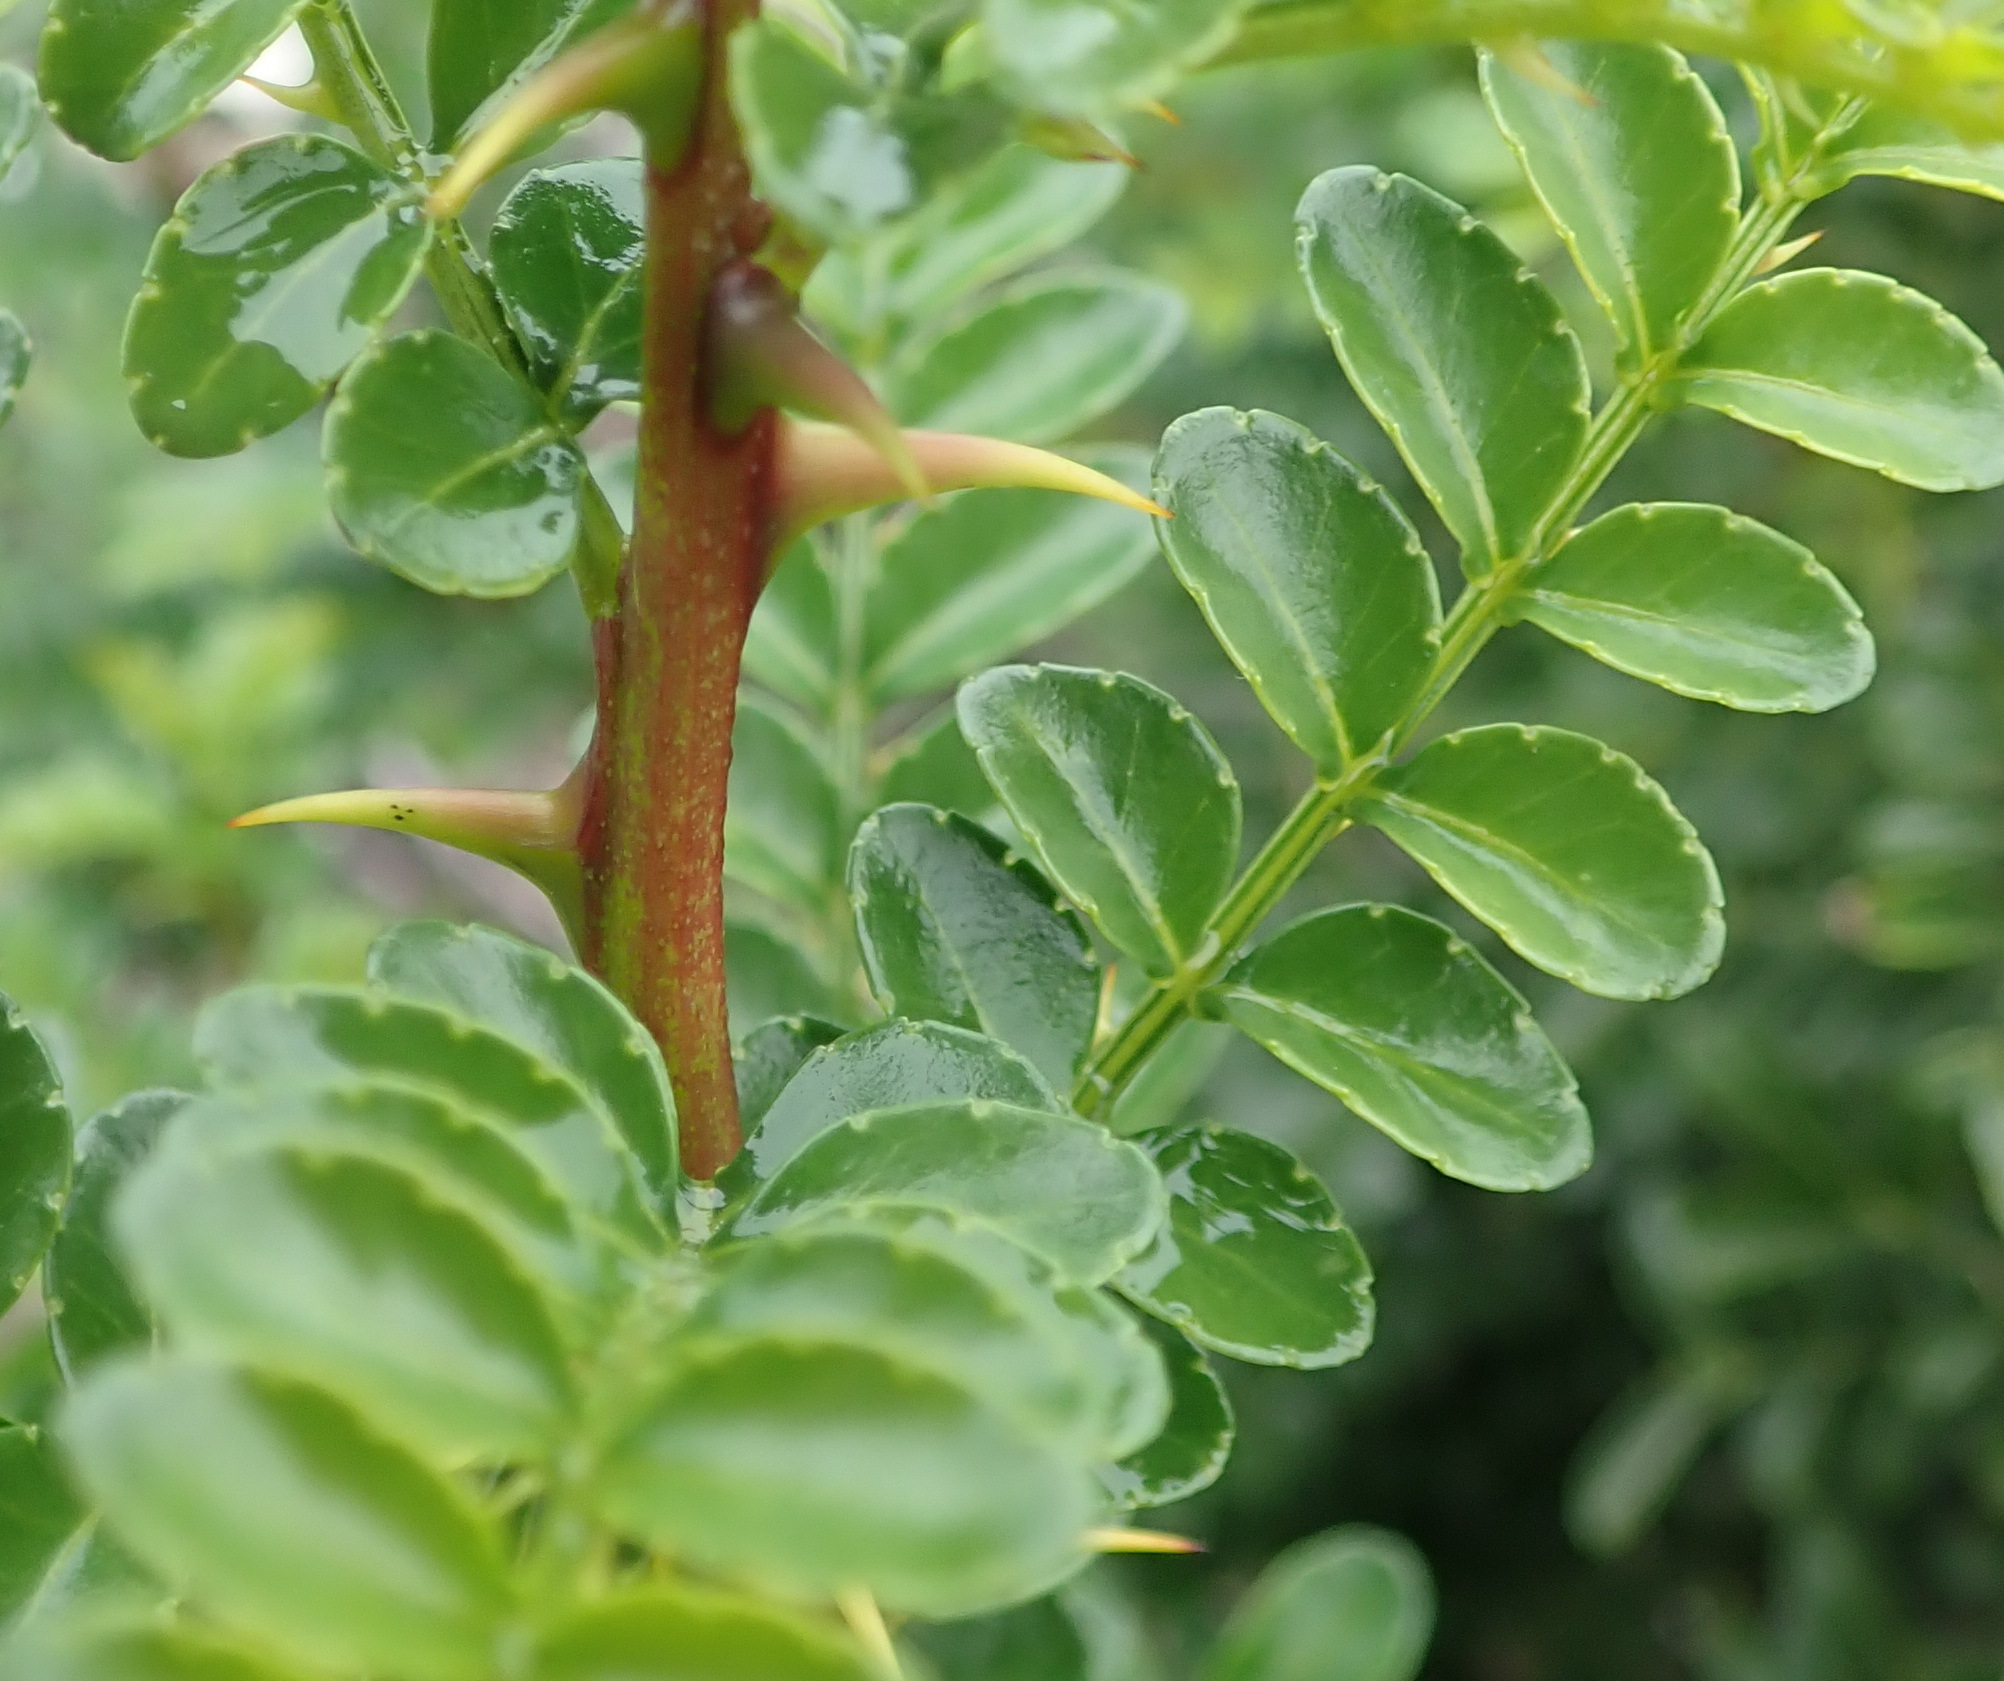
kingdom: Plantae
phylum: Tracheophyta
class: Magnoliopsida
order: Sapindales
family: Rutaceae
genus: Zanthoxylum
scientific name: Zanthoxylum capense
